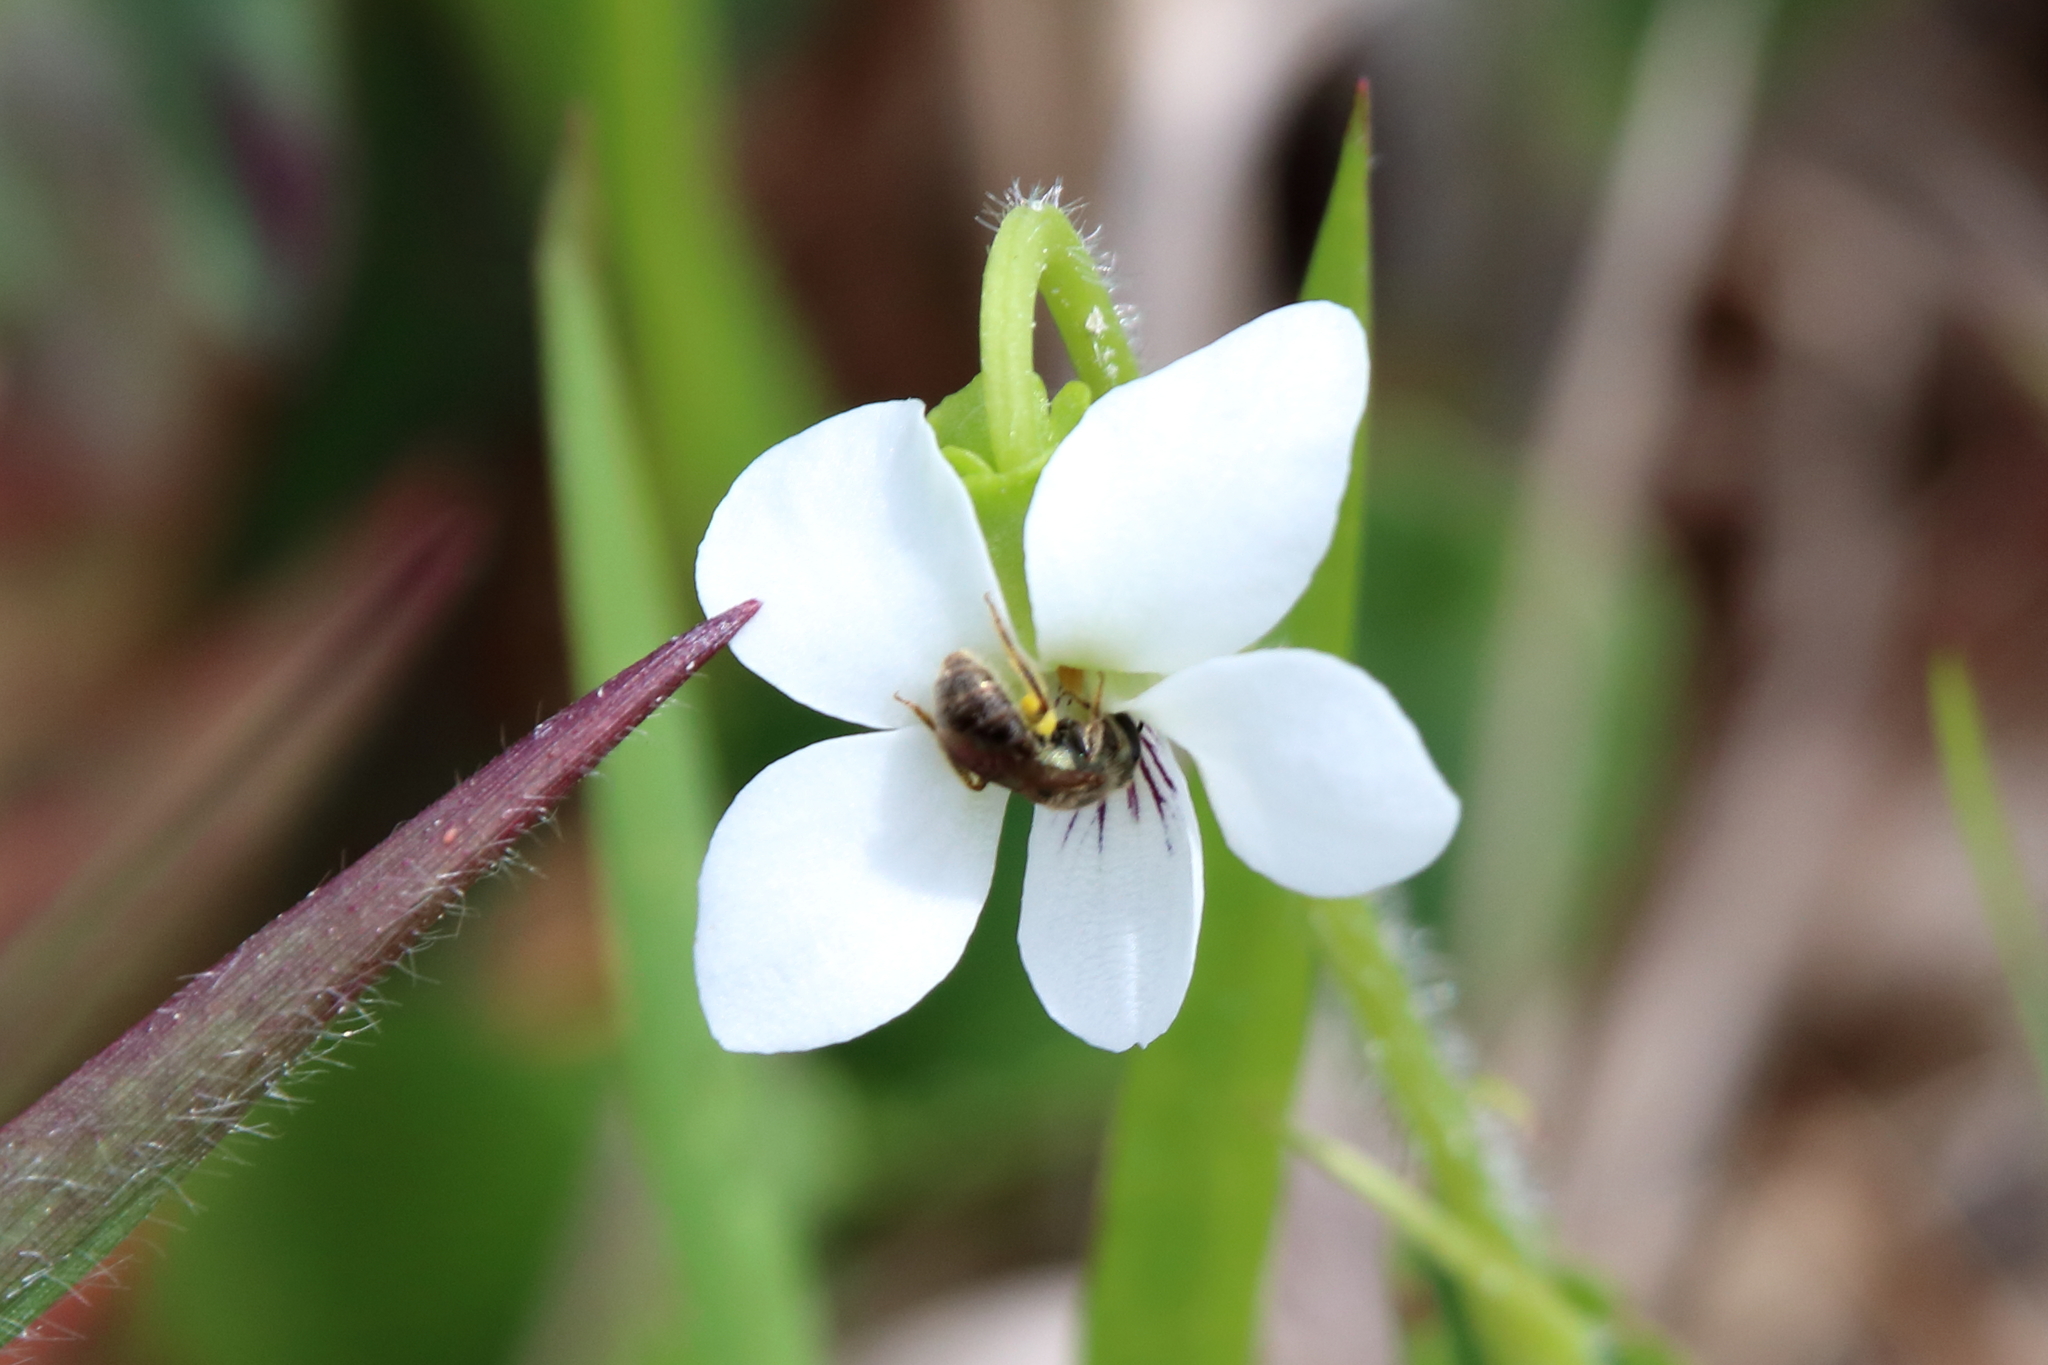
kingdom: Animalia
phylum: Arthropoda
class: Insecta
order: Hymenoptera
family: Halictidae
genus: Dialictus
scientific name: Dialictus
